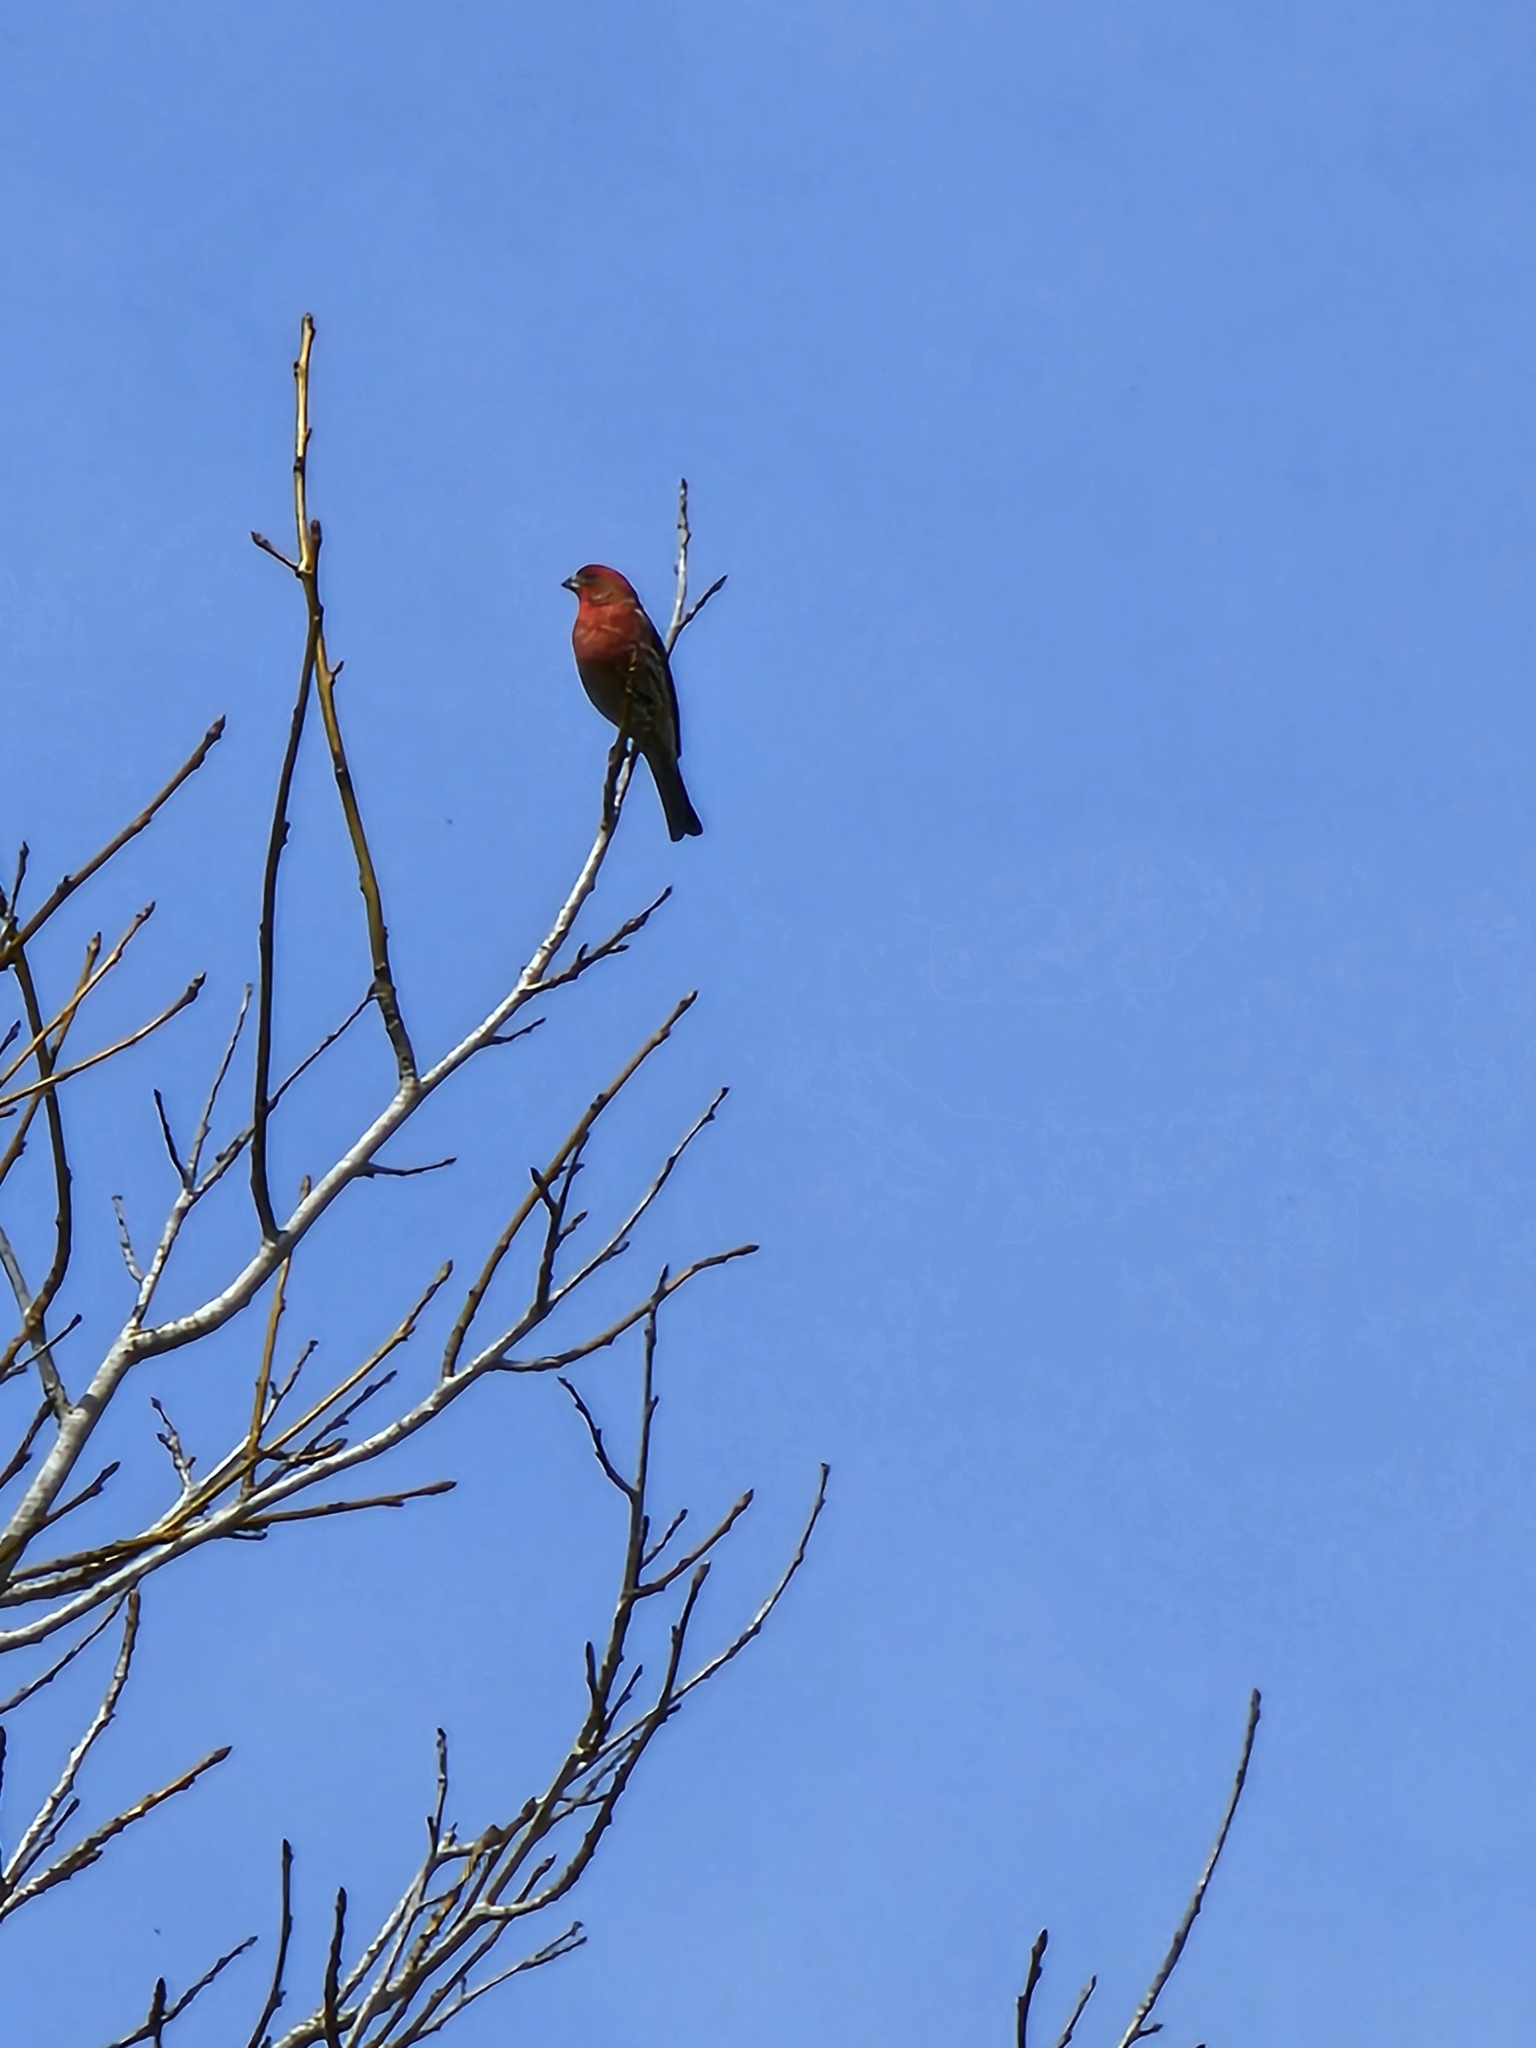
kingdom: Animalia
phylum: Chordata
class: Aves
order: Passeriformes
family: Fringillidae
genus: Haemorhous
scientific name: Haemorhous mexicanus
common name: House finch
